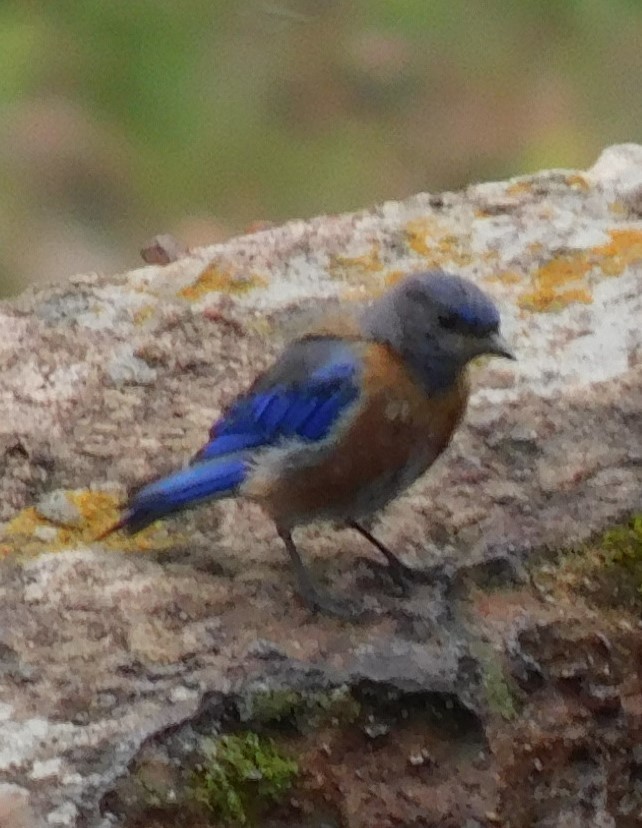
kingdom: Animalia
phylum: Chordata
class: Aves
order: Passeriformes
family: Turdidae
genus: Sialia
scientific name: Sialia mexicana
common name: Western bluebird
